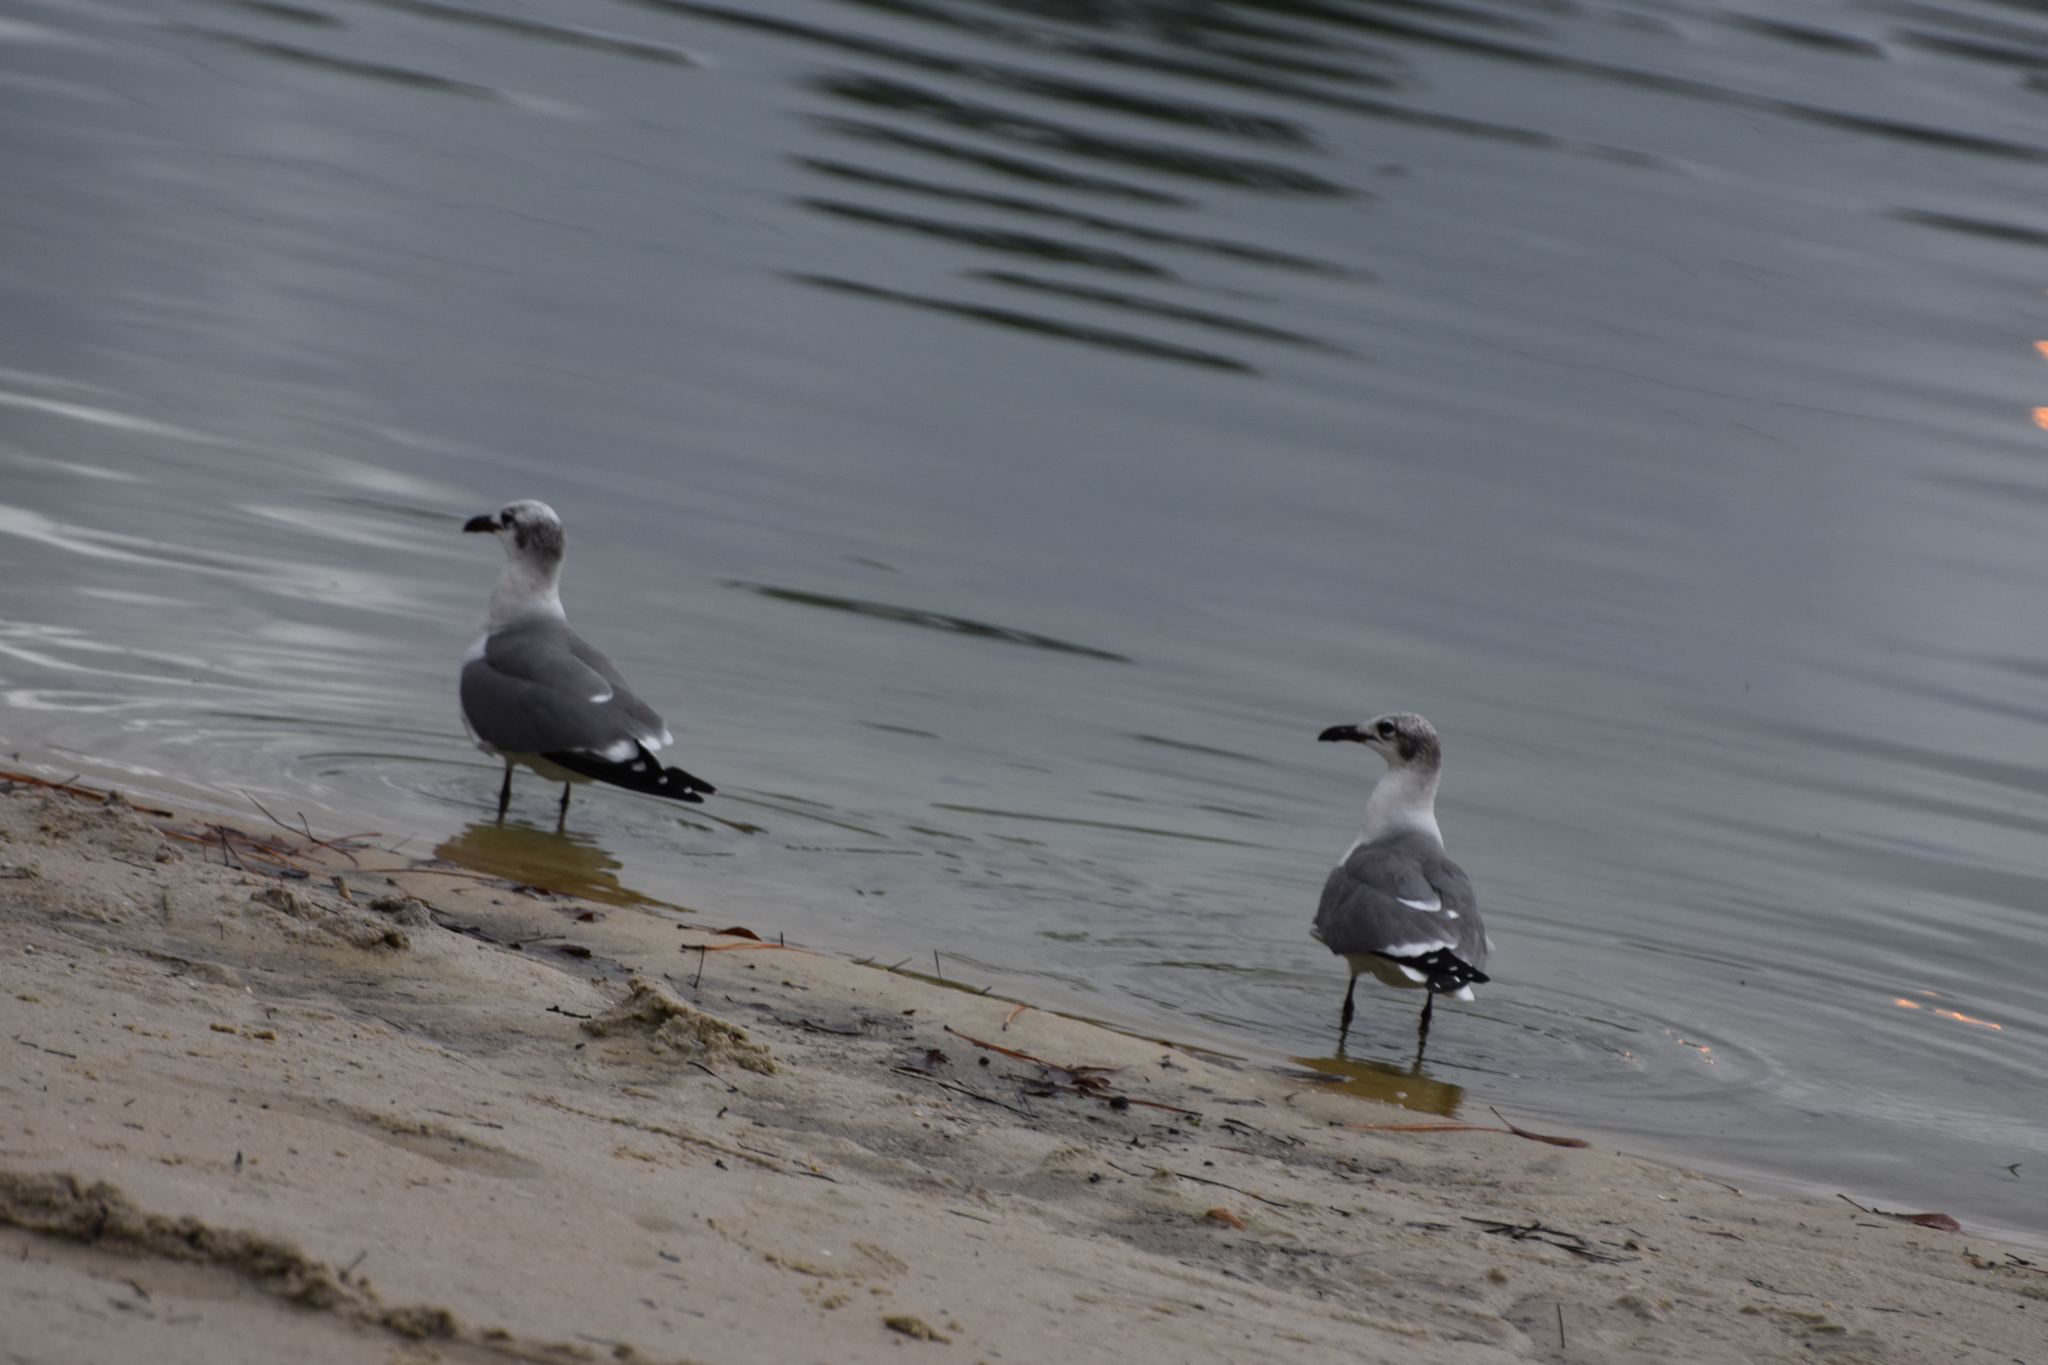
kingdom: Animalia
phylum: Chordata
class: Aves
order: Charadriiformes
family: Laridae
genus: Leucophaeus
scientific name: Leucophaeus atricilla
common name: Laughing gull
